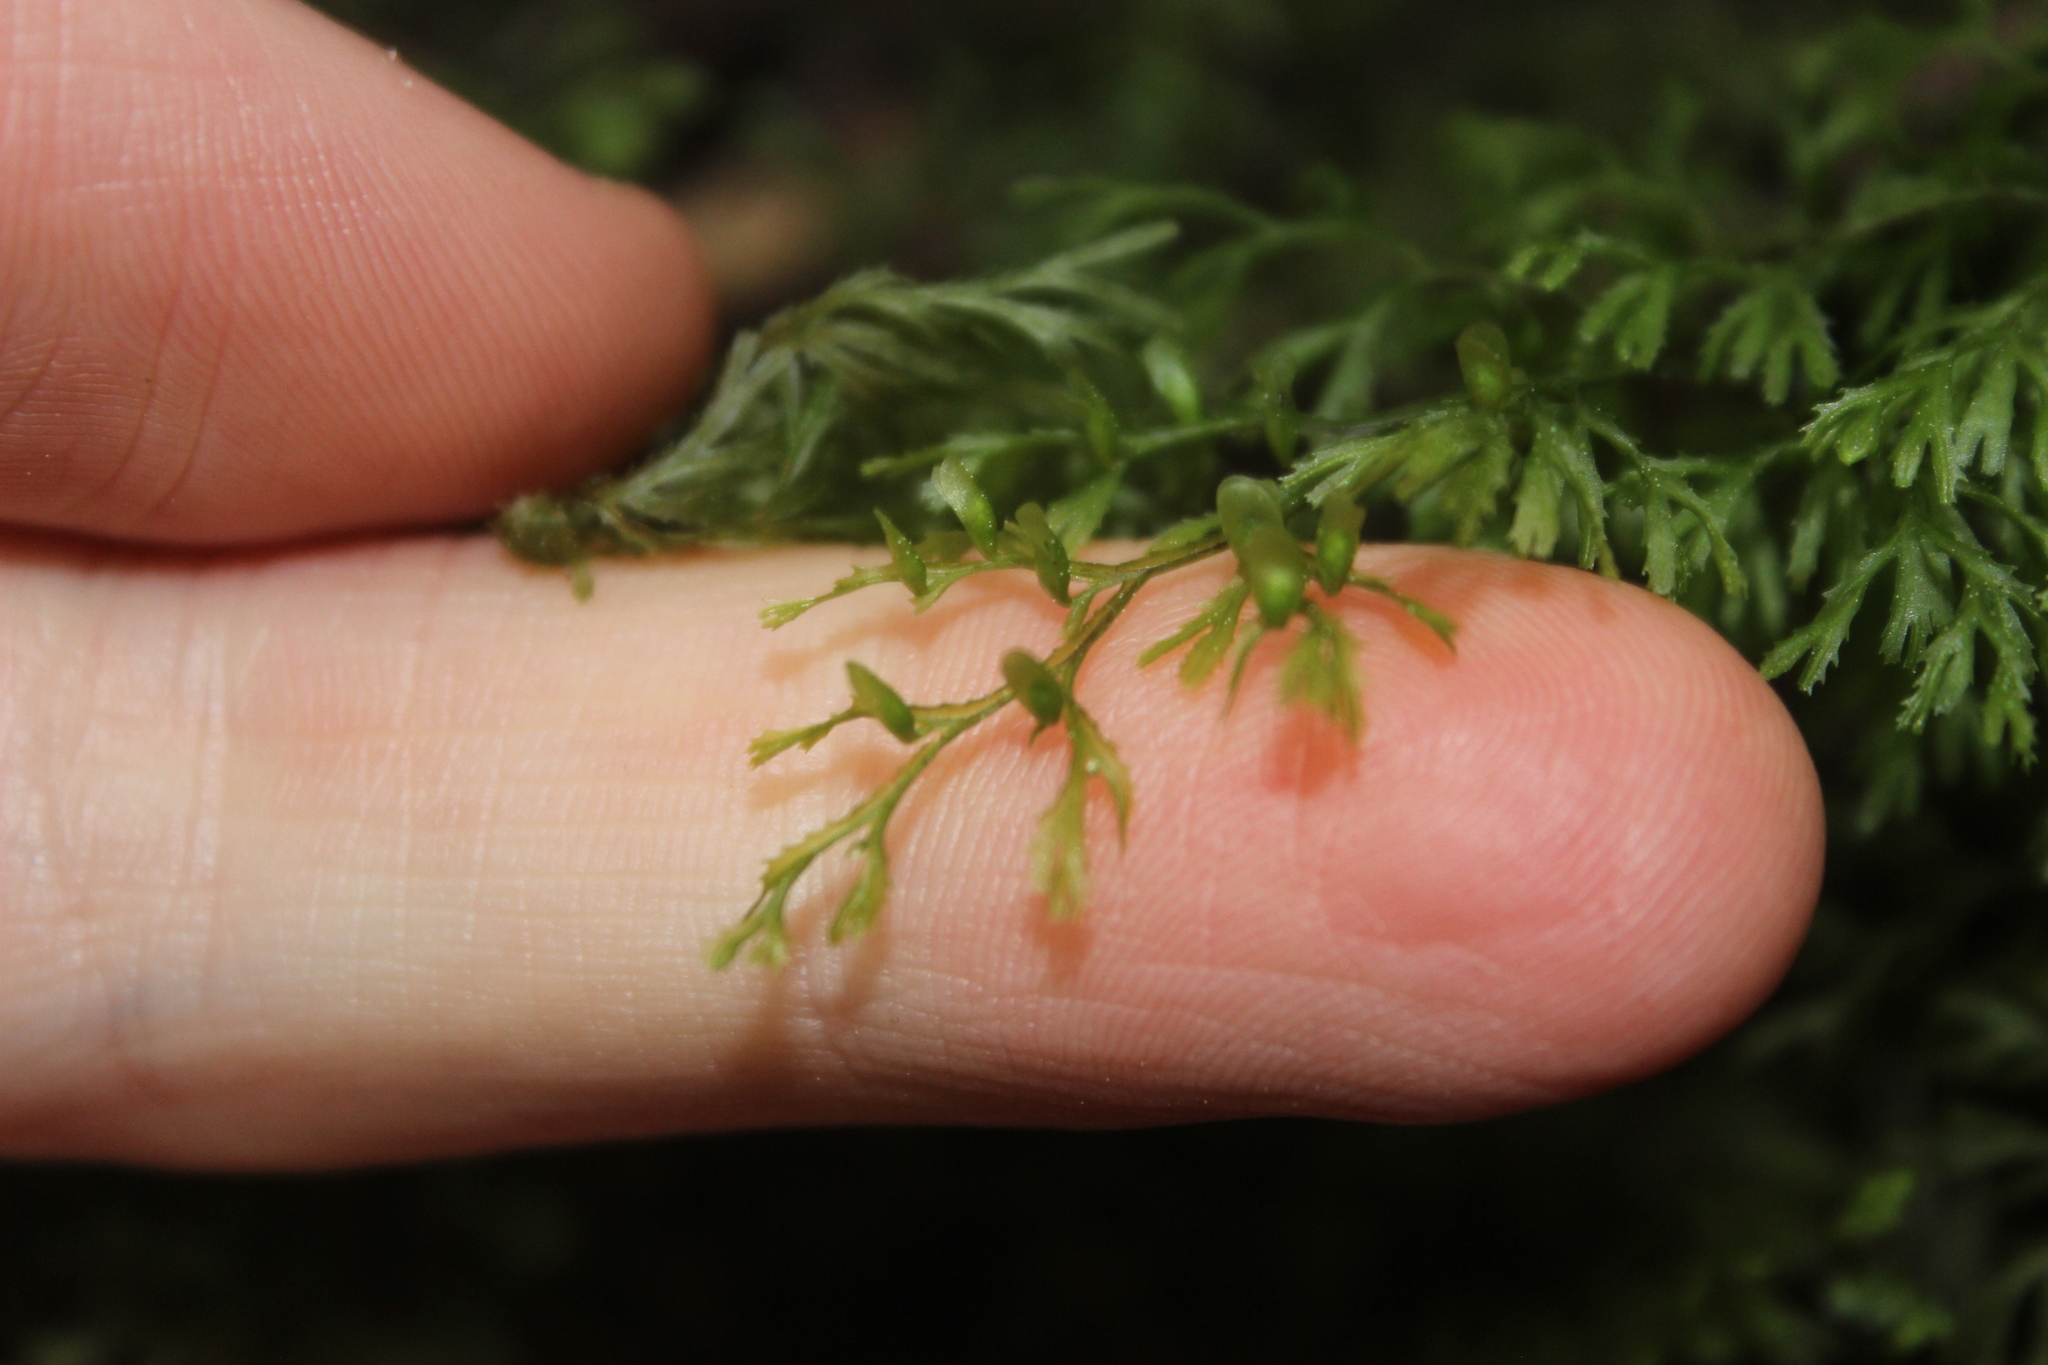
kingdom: Plantae
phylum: Tracheophyta
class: Polypodiopsida
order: Hymenophyllales
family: Hymenophyllaceae
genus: Hymenophyllum
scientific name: Hymenophyllum multifidum
